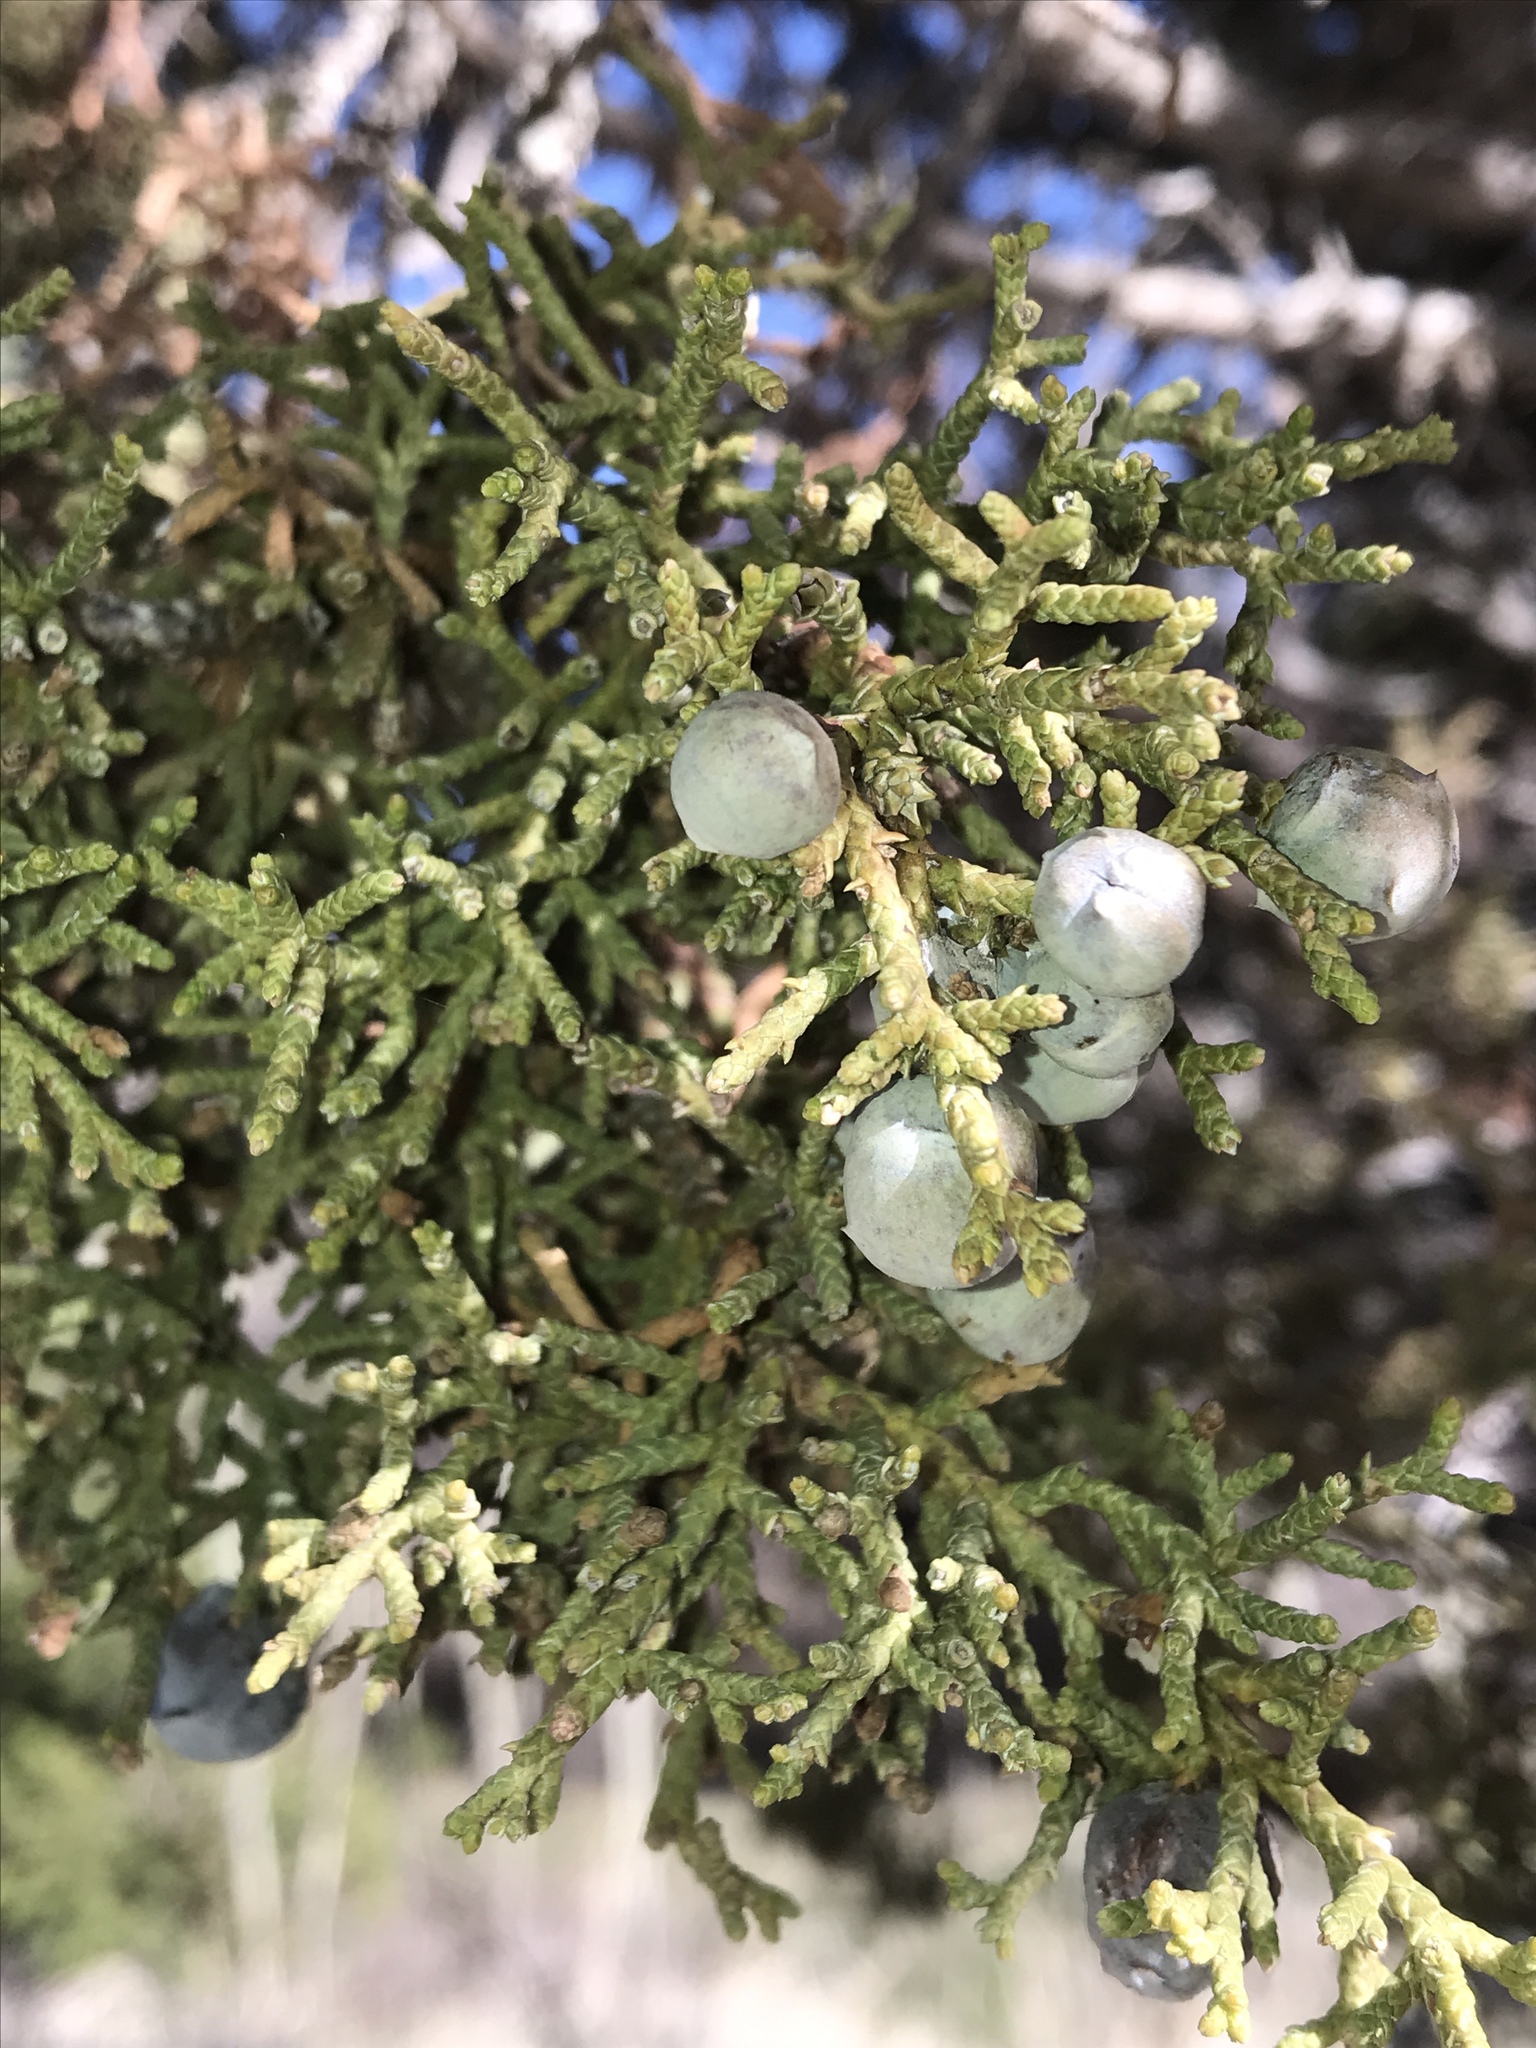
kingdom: Plantae
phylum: Tracheophyta
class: Pinopsida
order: Pinales
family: Cupressaceae
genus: Juniperus
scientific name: Juniperus osteosperma
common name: Utah juniper
